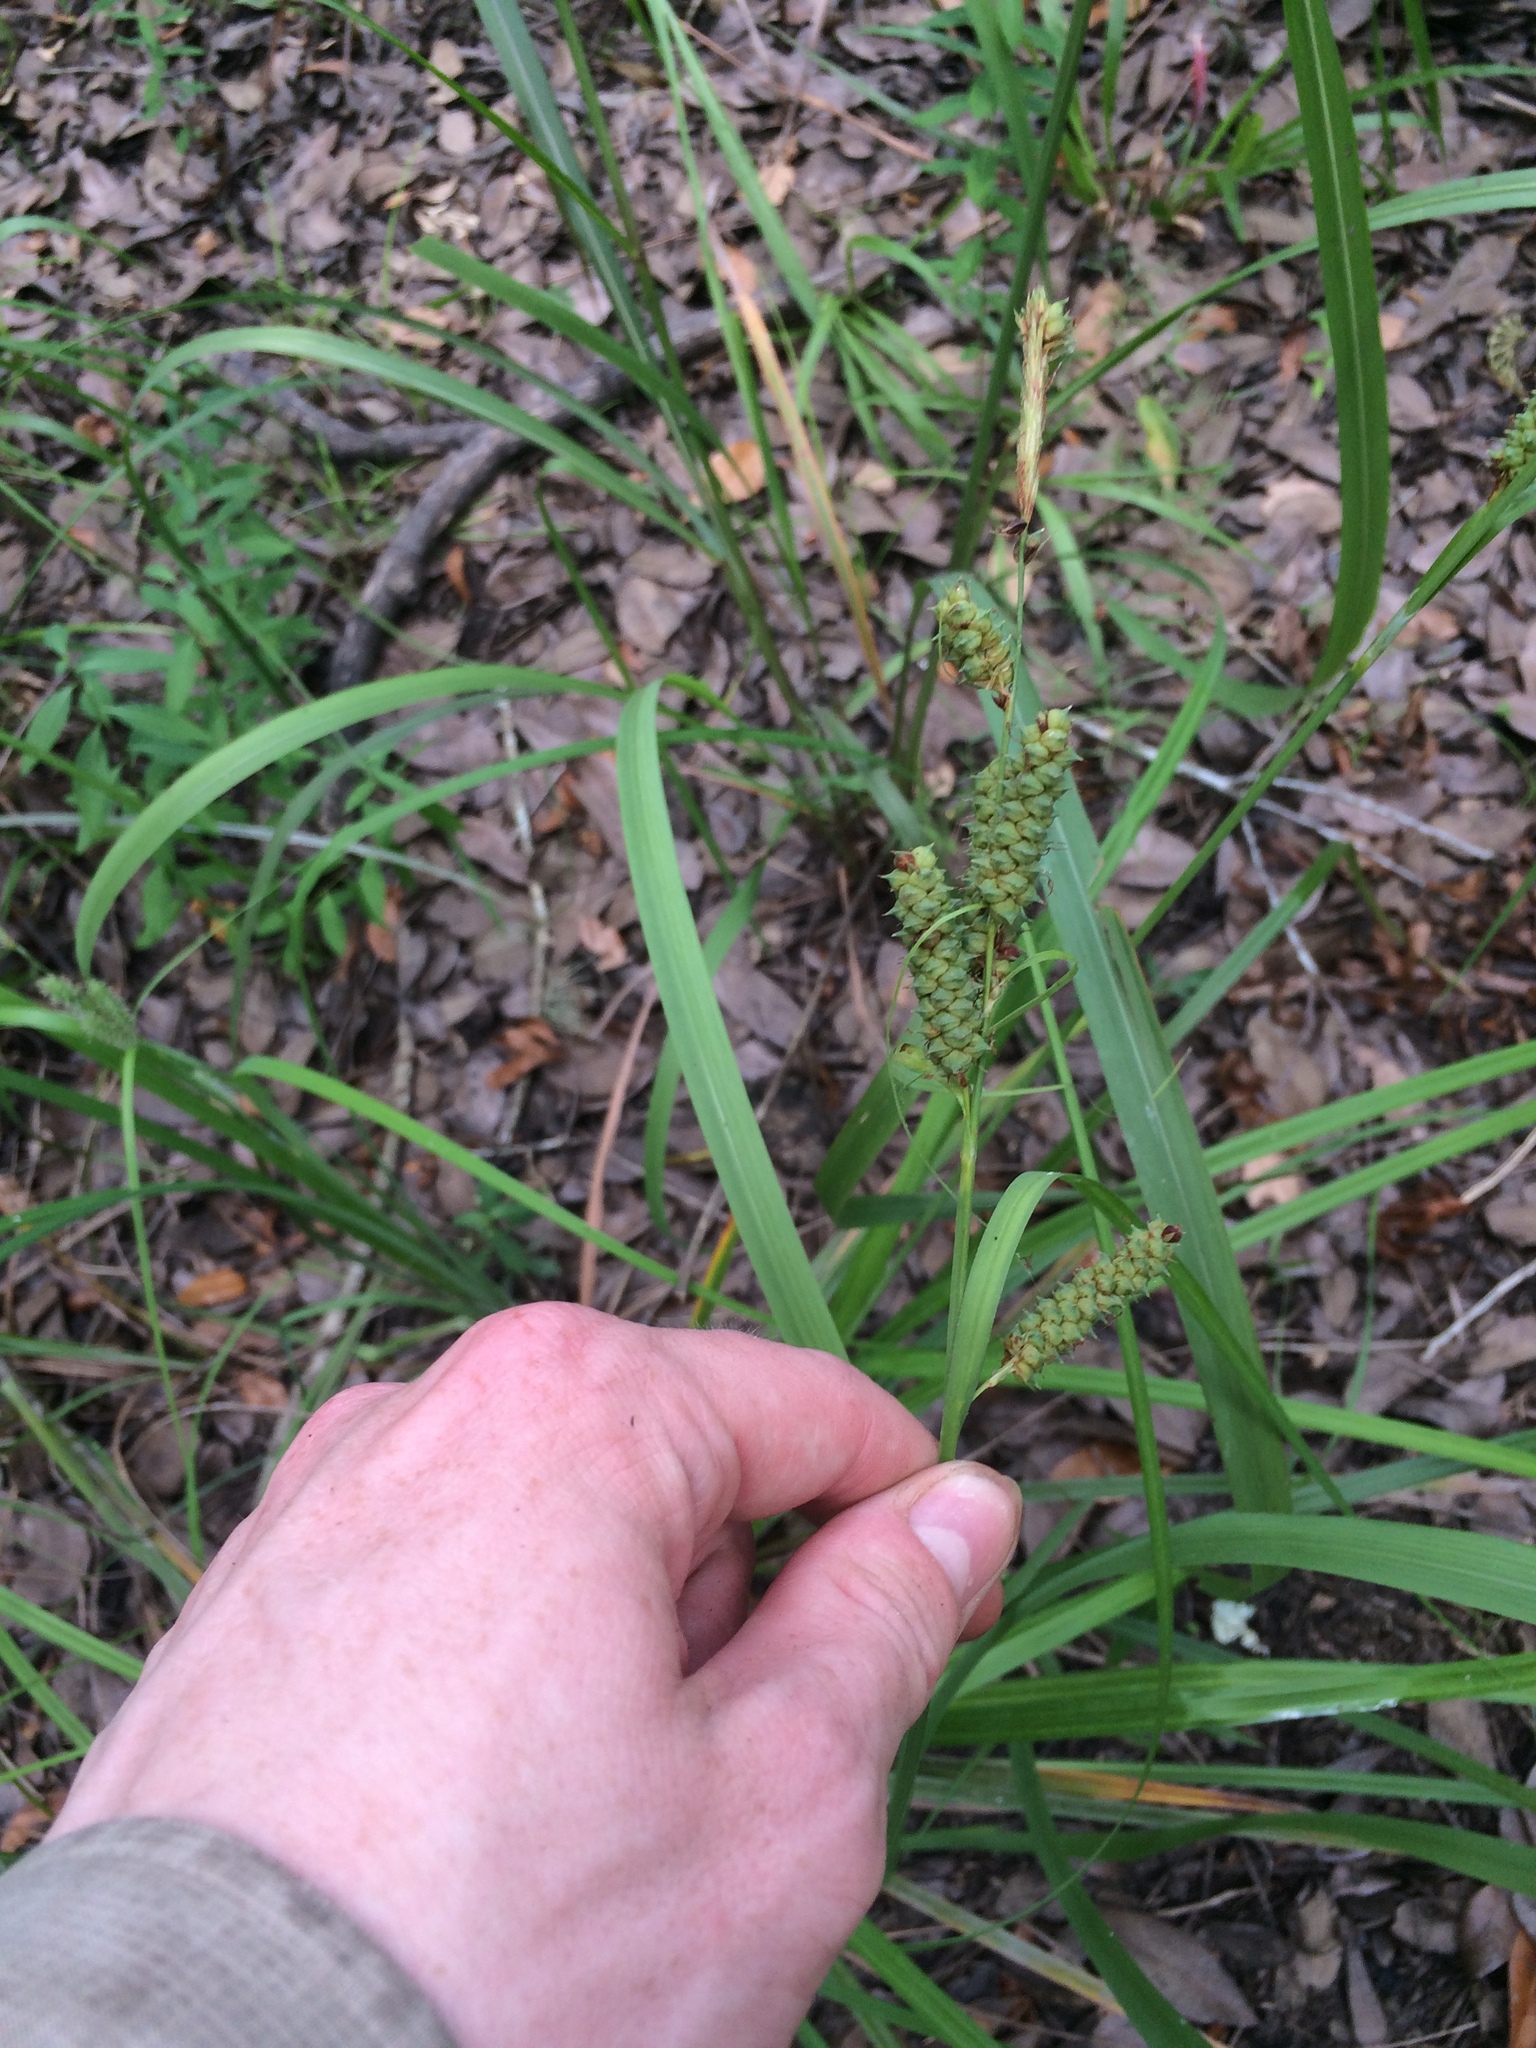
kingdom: Plantae
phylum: Tracheophyta
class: Liliopsida
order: Poales
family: Cyperaceae
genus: Carex
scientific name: Carex joorii
